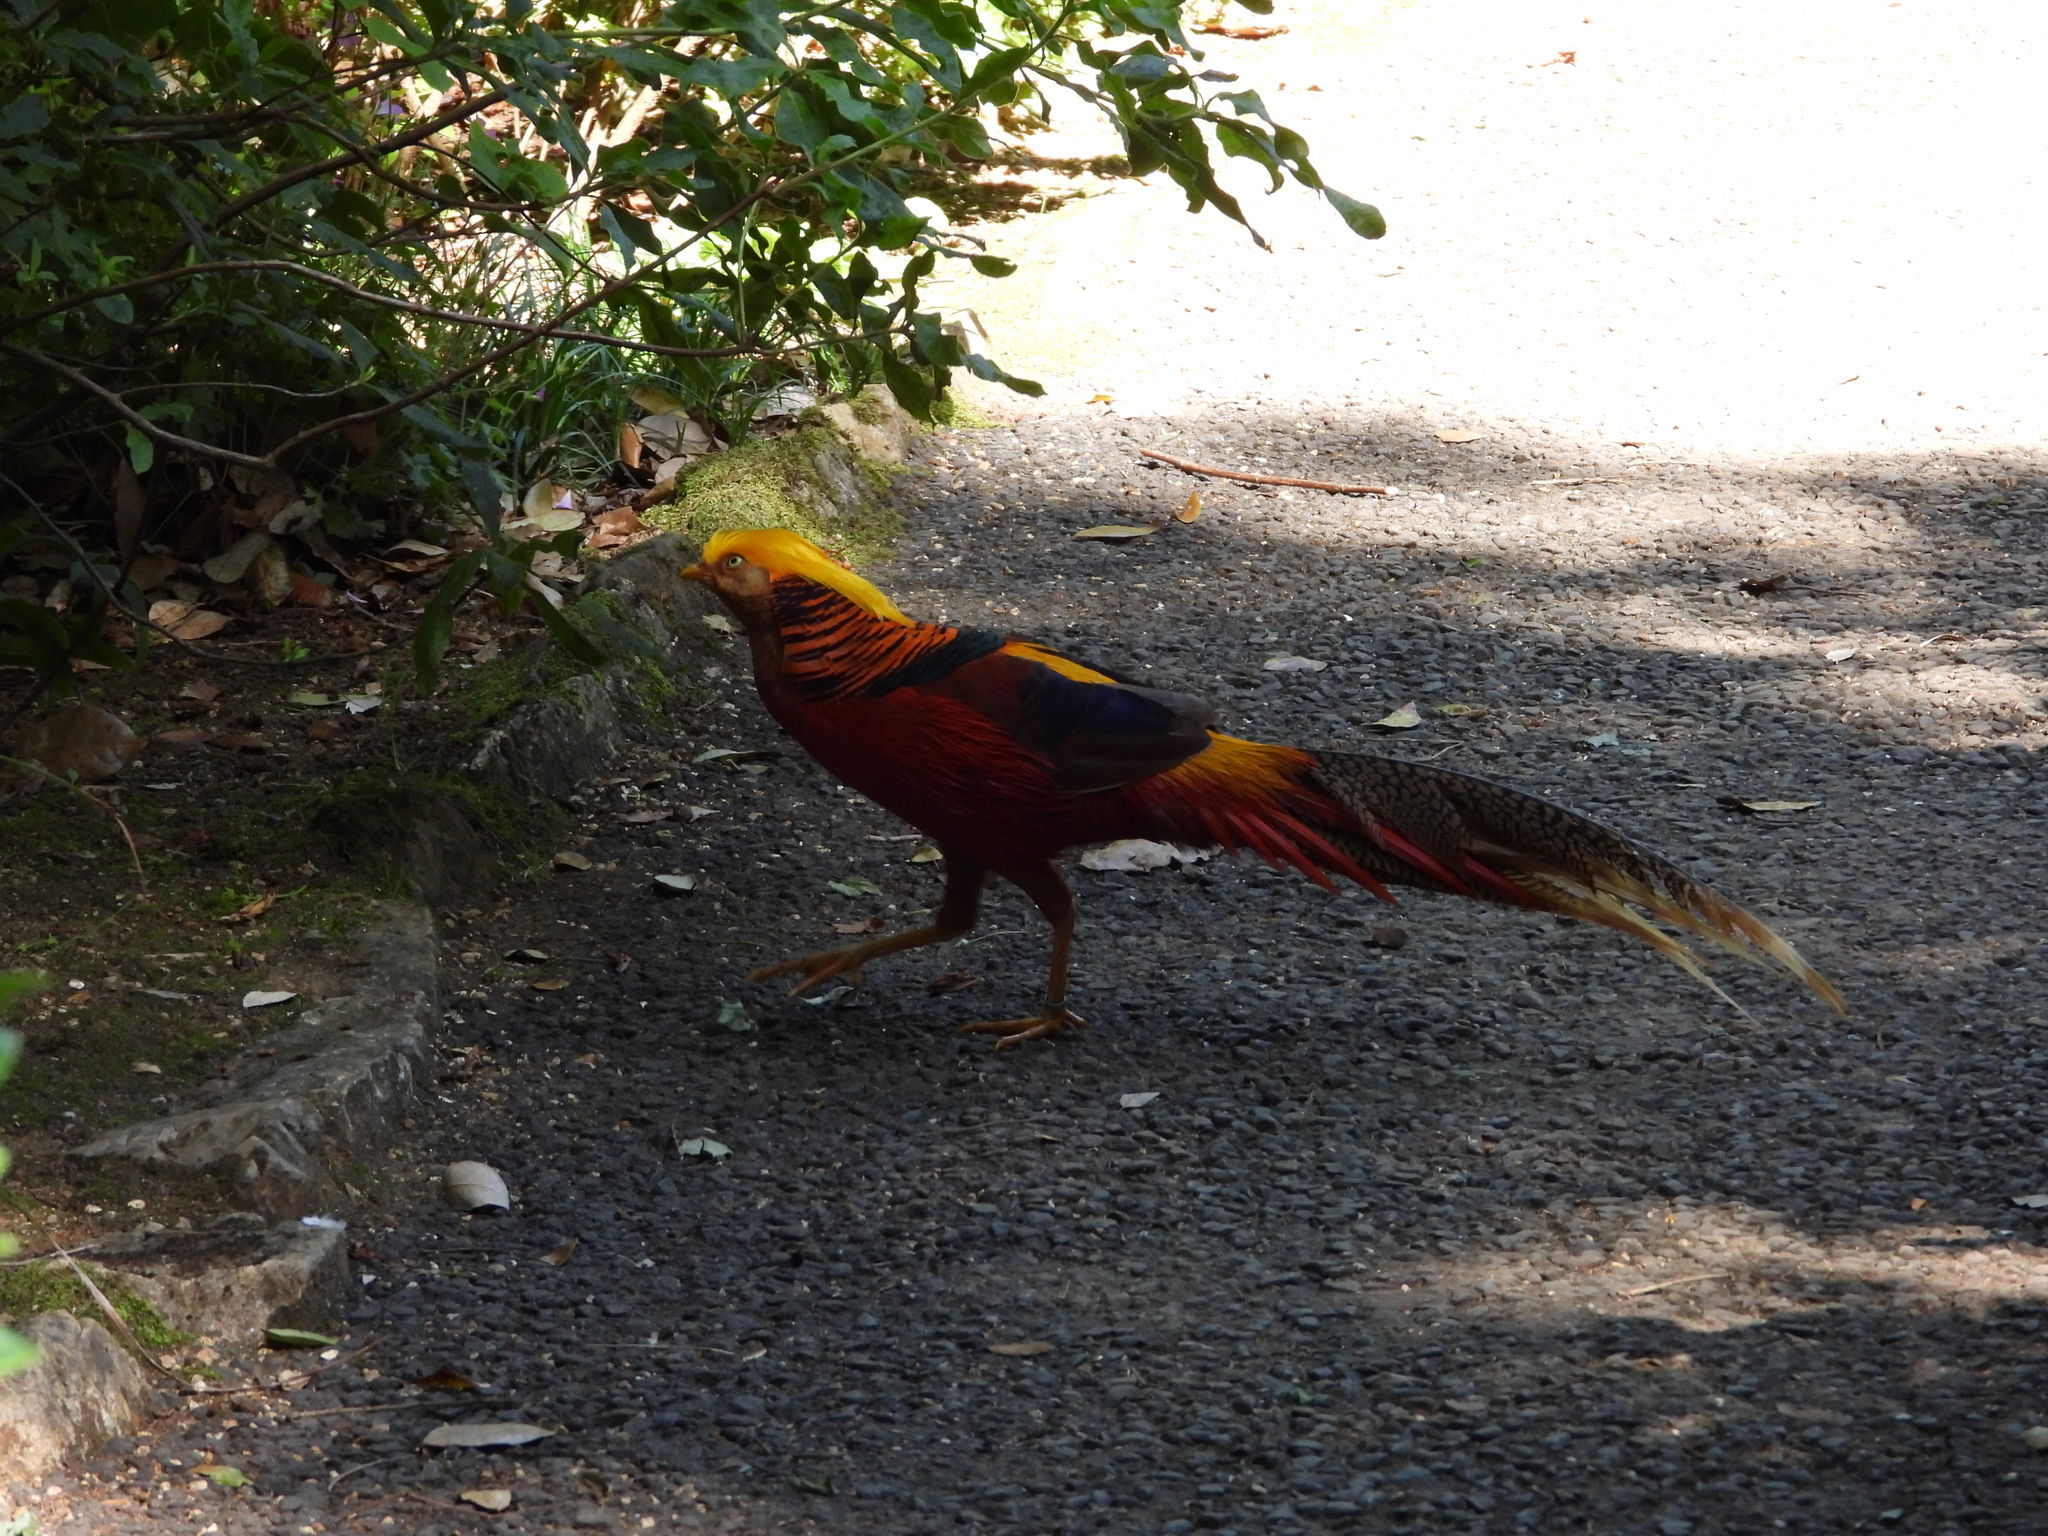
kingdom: Animalia
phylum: Chordata
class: Aves
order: Galliformes
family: Phasianidae
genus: Chrysolophus
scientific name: Chrysolophus pictus
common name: Golden pheasant
